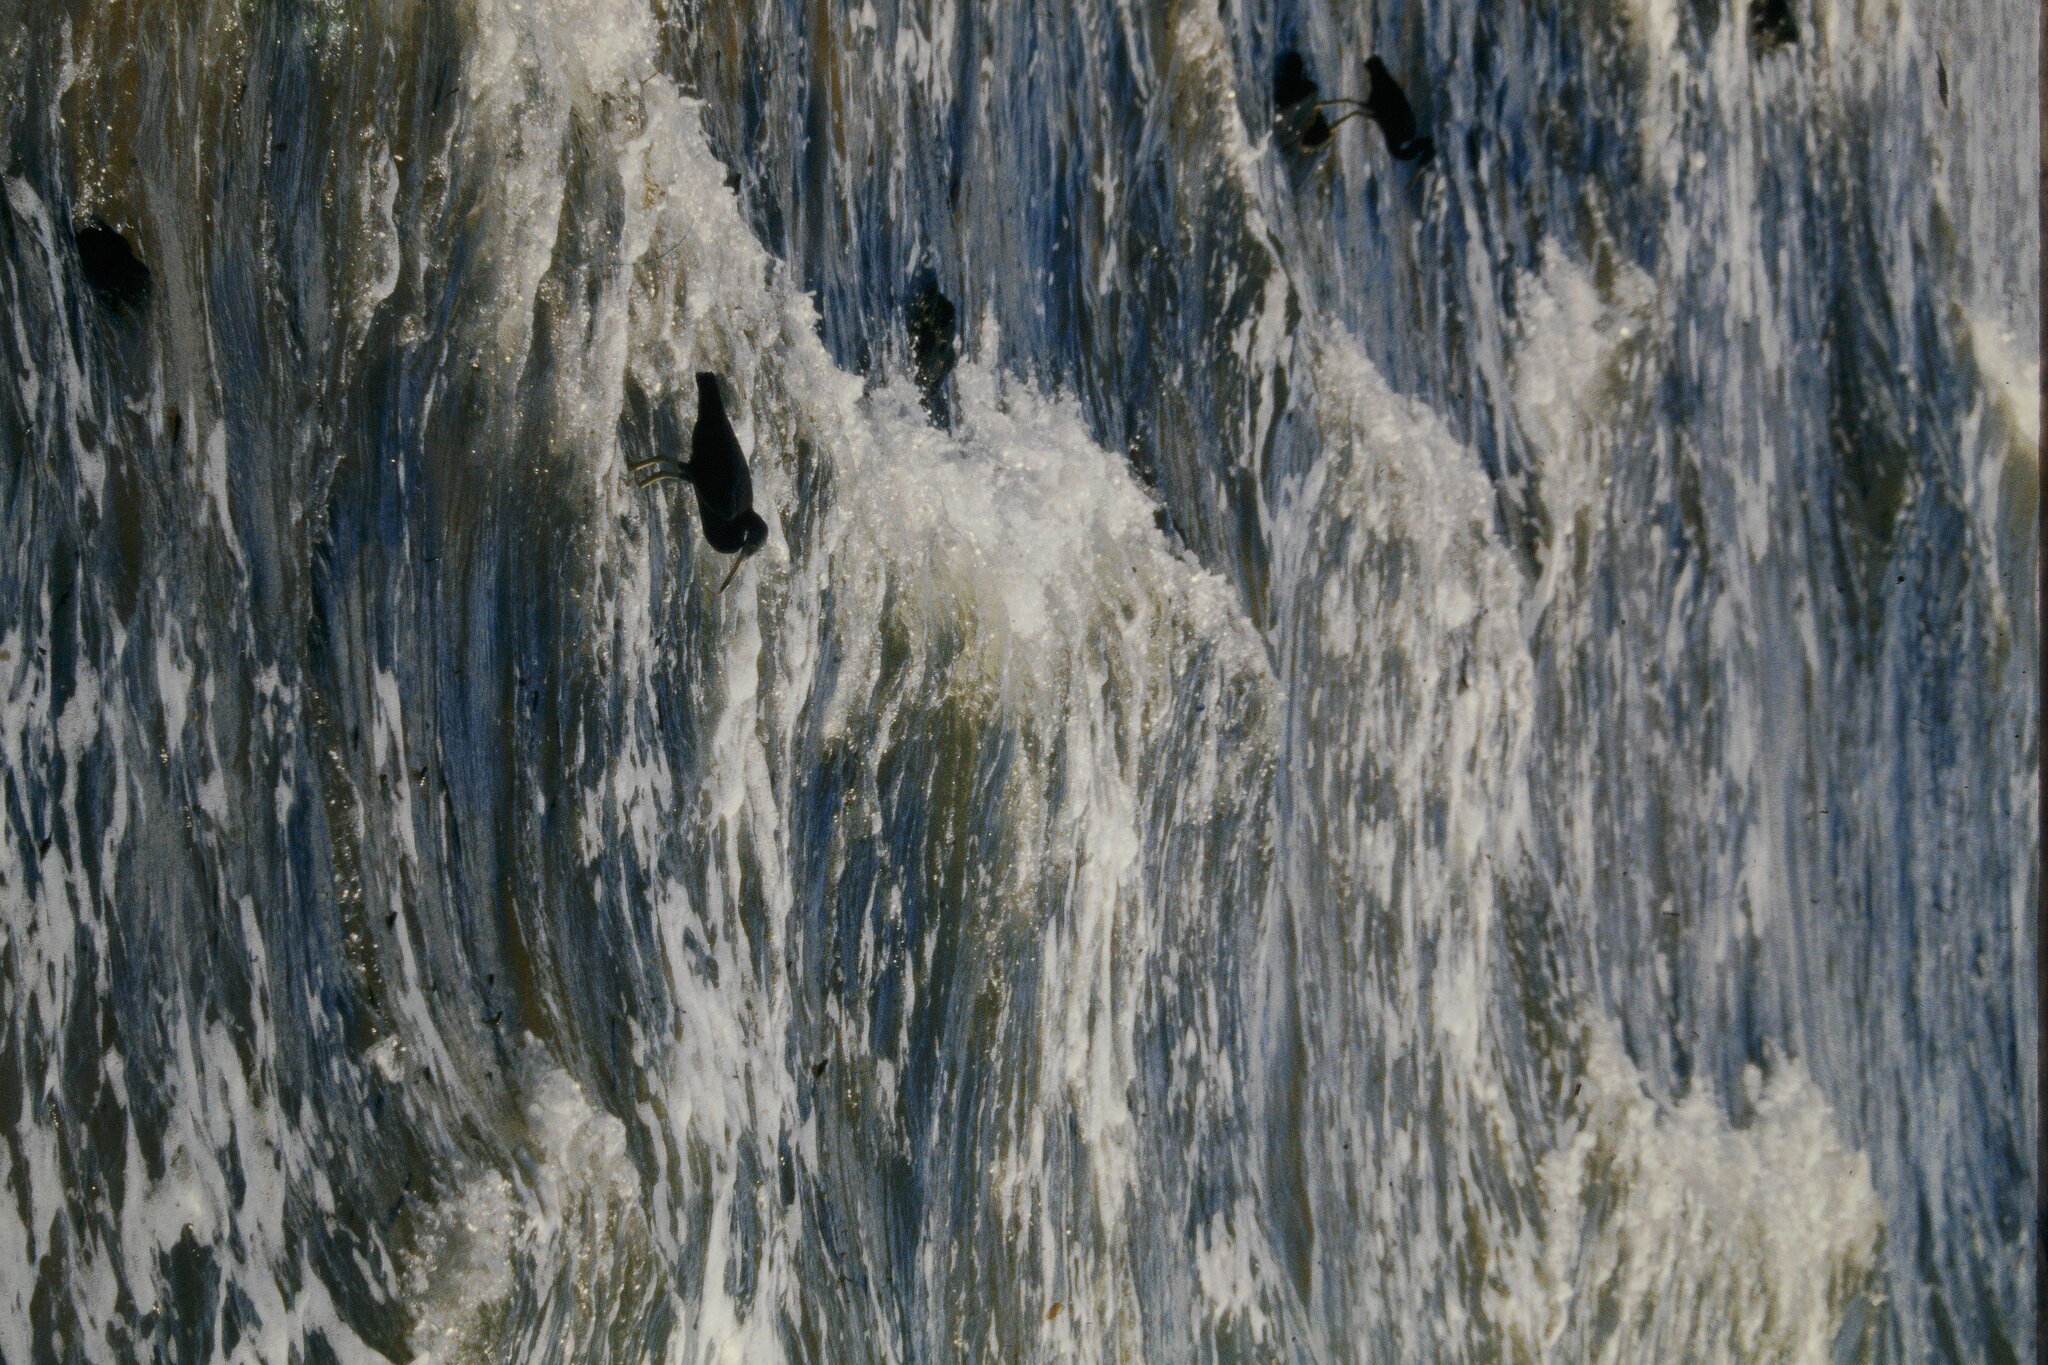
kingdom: Animalia
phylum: Chordata
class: Aves
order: Pelecaniformes
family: Ardeidae
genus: Egretta
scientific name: Egretta sacra
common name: Pacific reef heron
